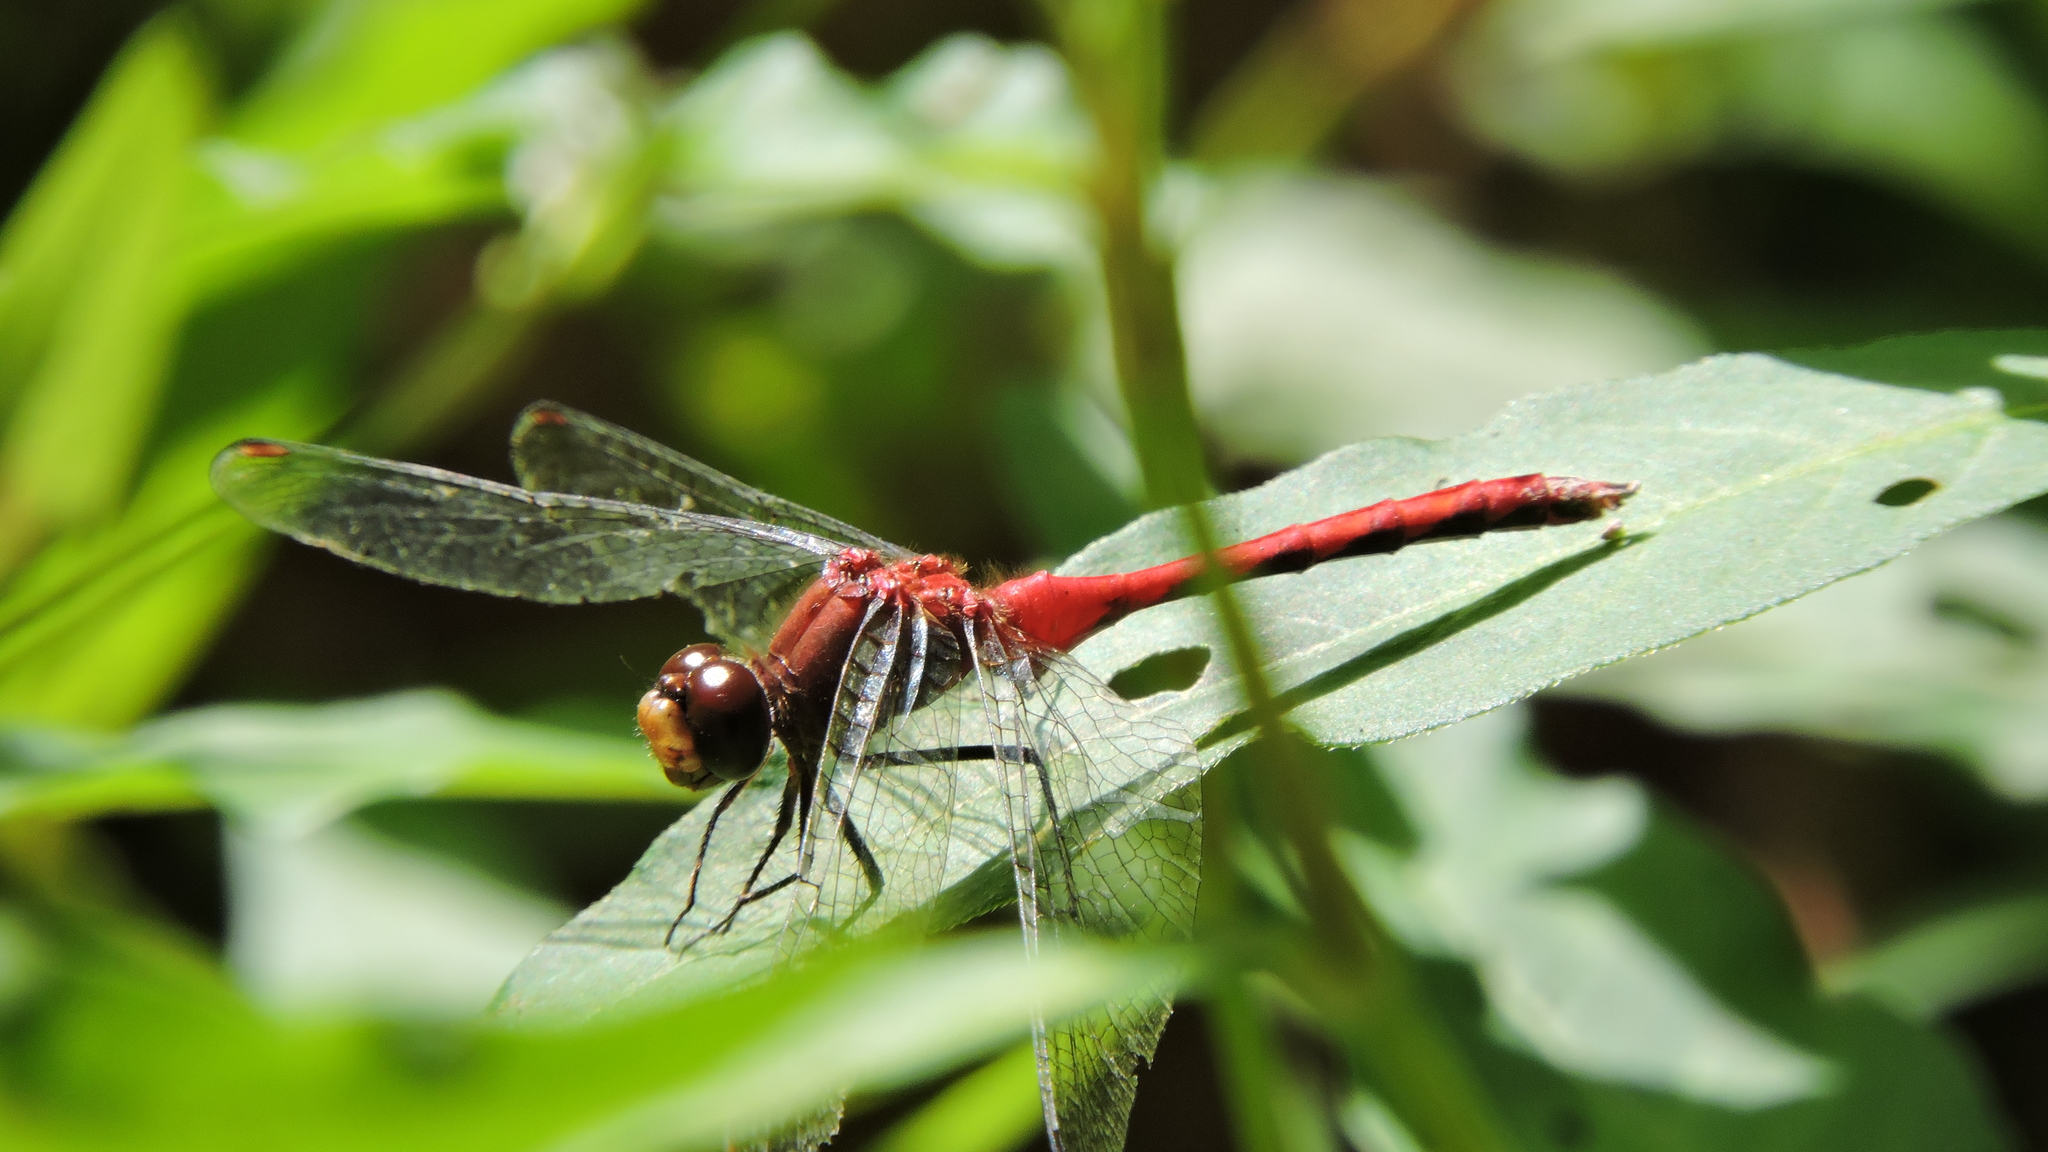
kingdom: Animalia
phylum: Arthropoda
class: Insecta
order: Odonata
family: Libellulidae
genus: Sympetrum
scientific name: Sympetrum
